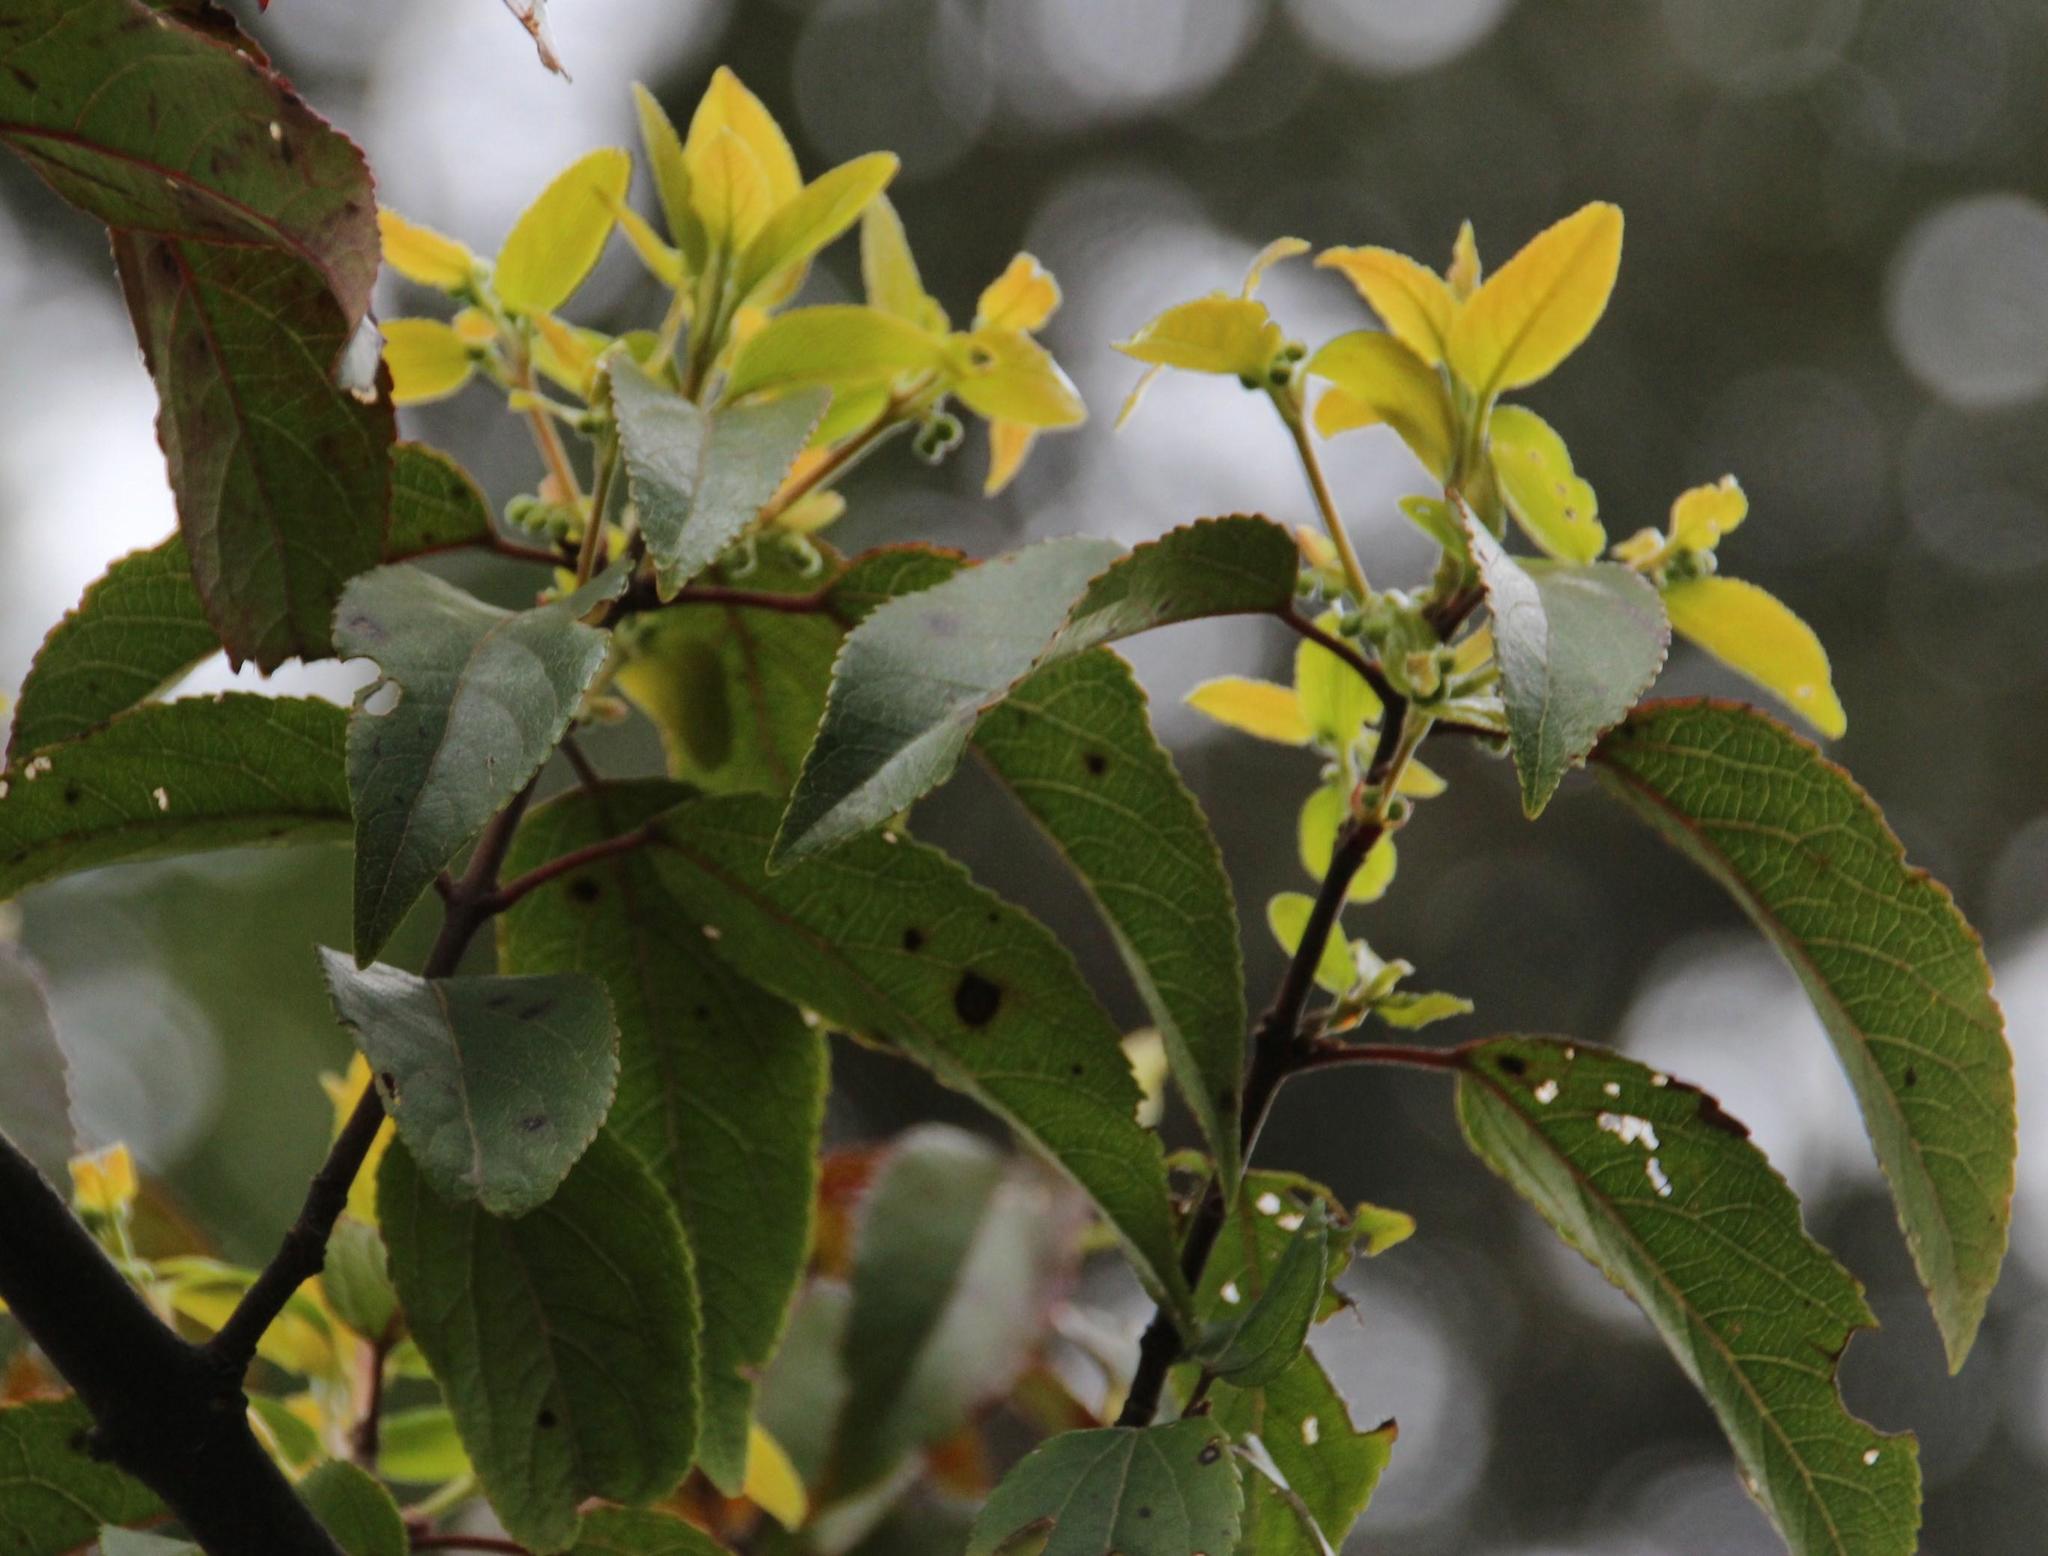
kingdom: Plantae
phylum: Tracheophyta
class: Magnoliopsida
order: Oxalidales
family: Elaeocarpaceae
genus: Aristotelia
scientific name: Aristotelia chilensis
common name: Maquei
